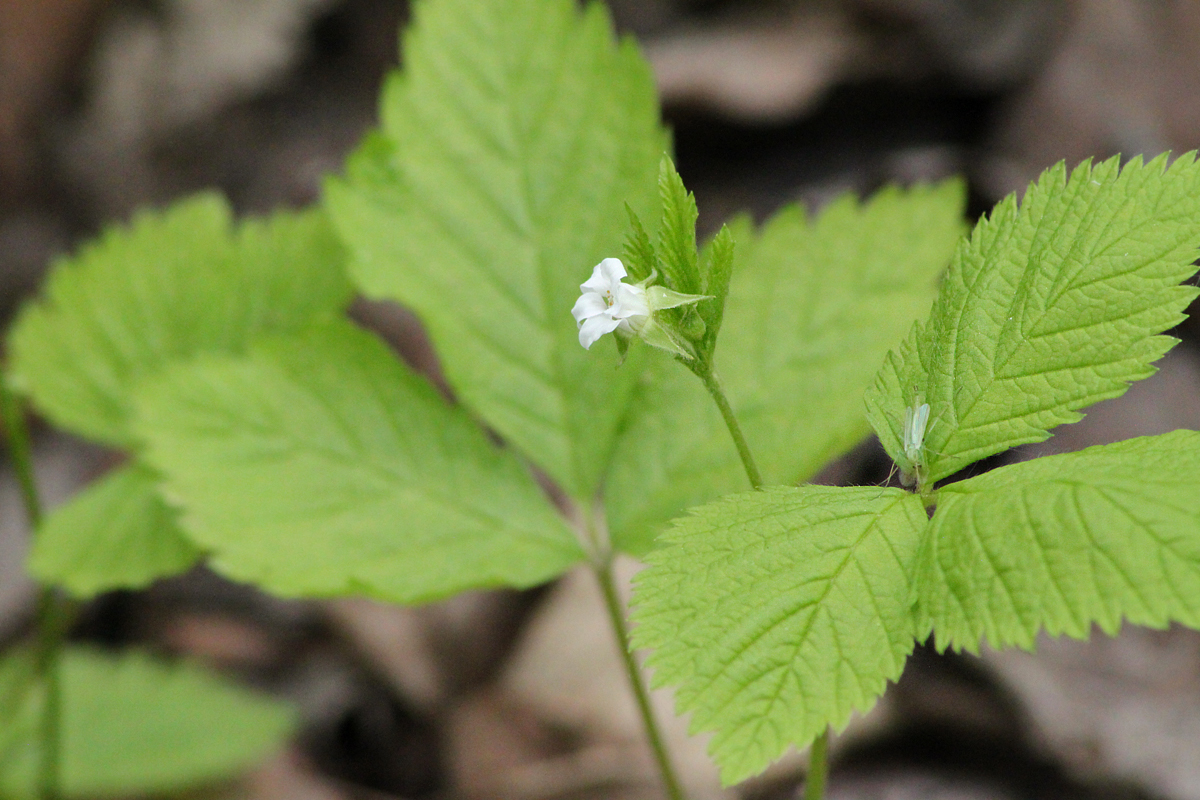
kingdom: Plantae
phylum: Tracheophyta
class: Magnoliopsida
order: Rosales
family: Rosaceae
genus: Rubus
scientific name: Rubus pubescens
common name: Dwarf raspberry
